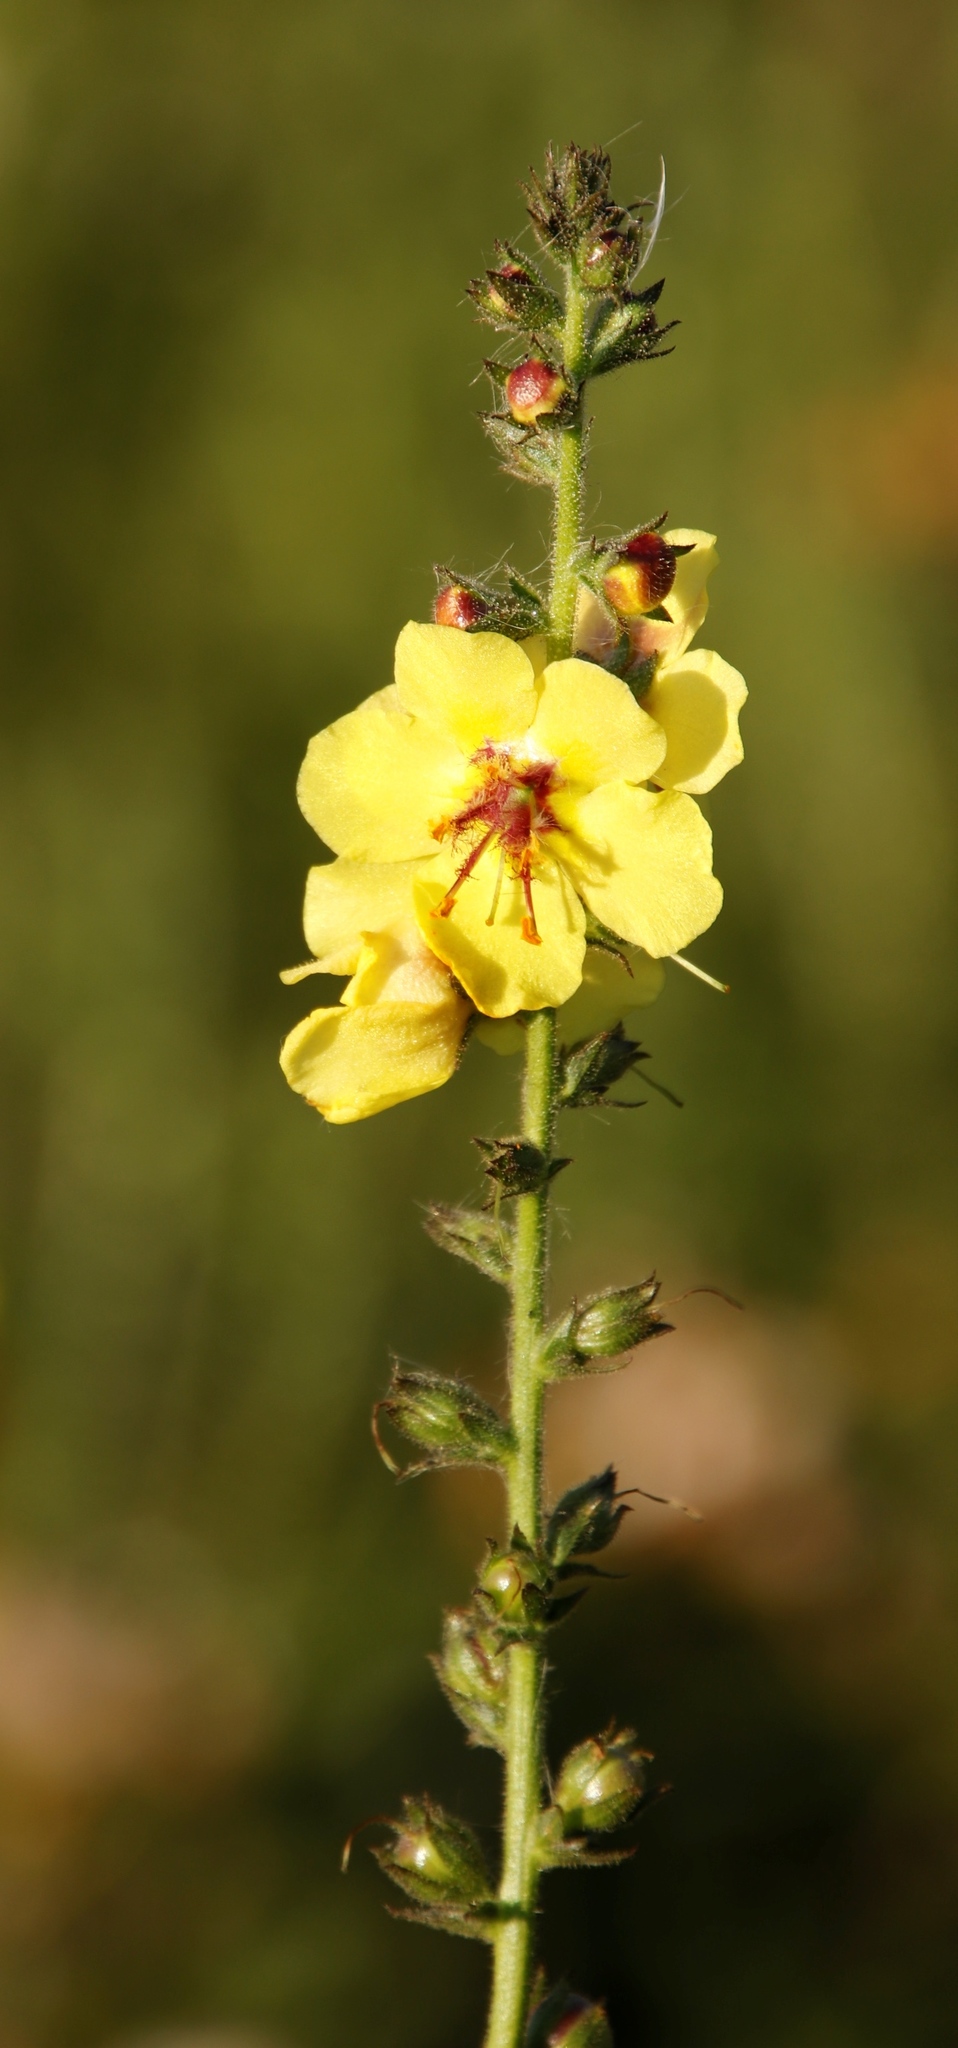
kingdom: Plantae
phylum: Tracheophyta
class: Magnoliopsida
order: Lamiales
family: Scrophulariaceae
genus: Verbascum
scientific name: Verbascum virgatum
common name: Twiggy mullein
